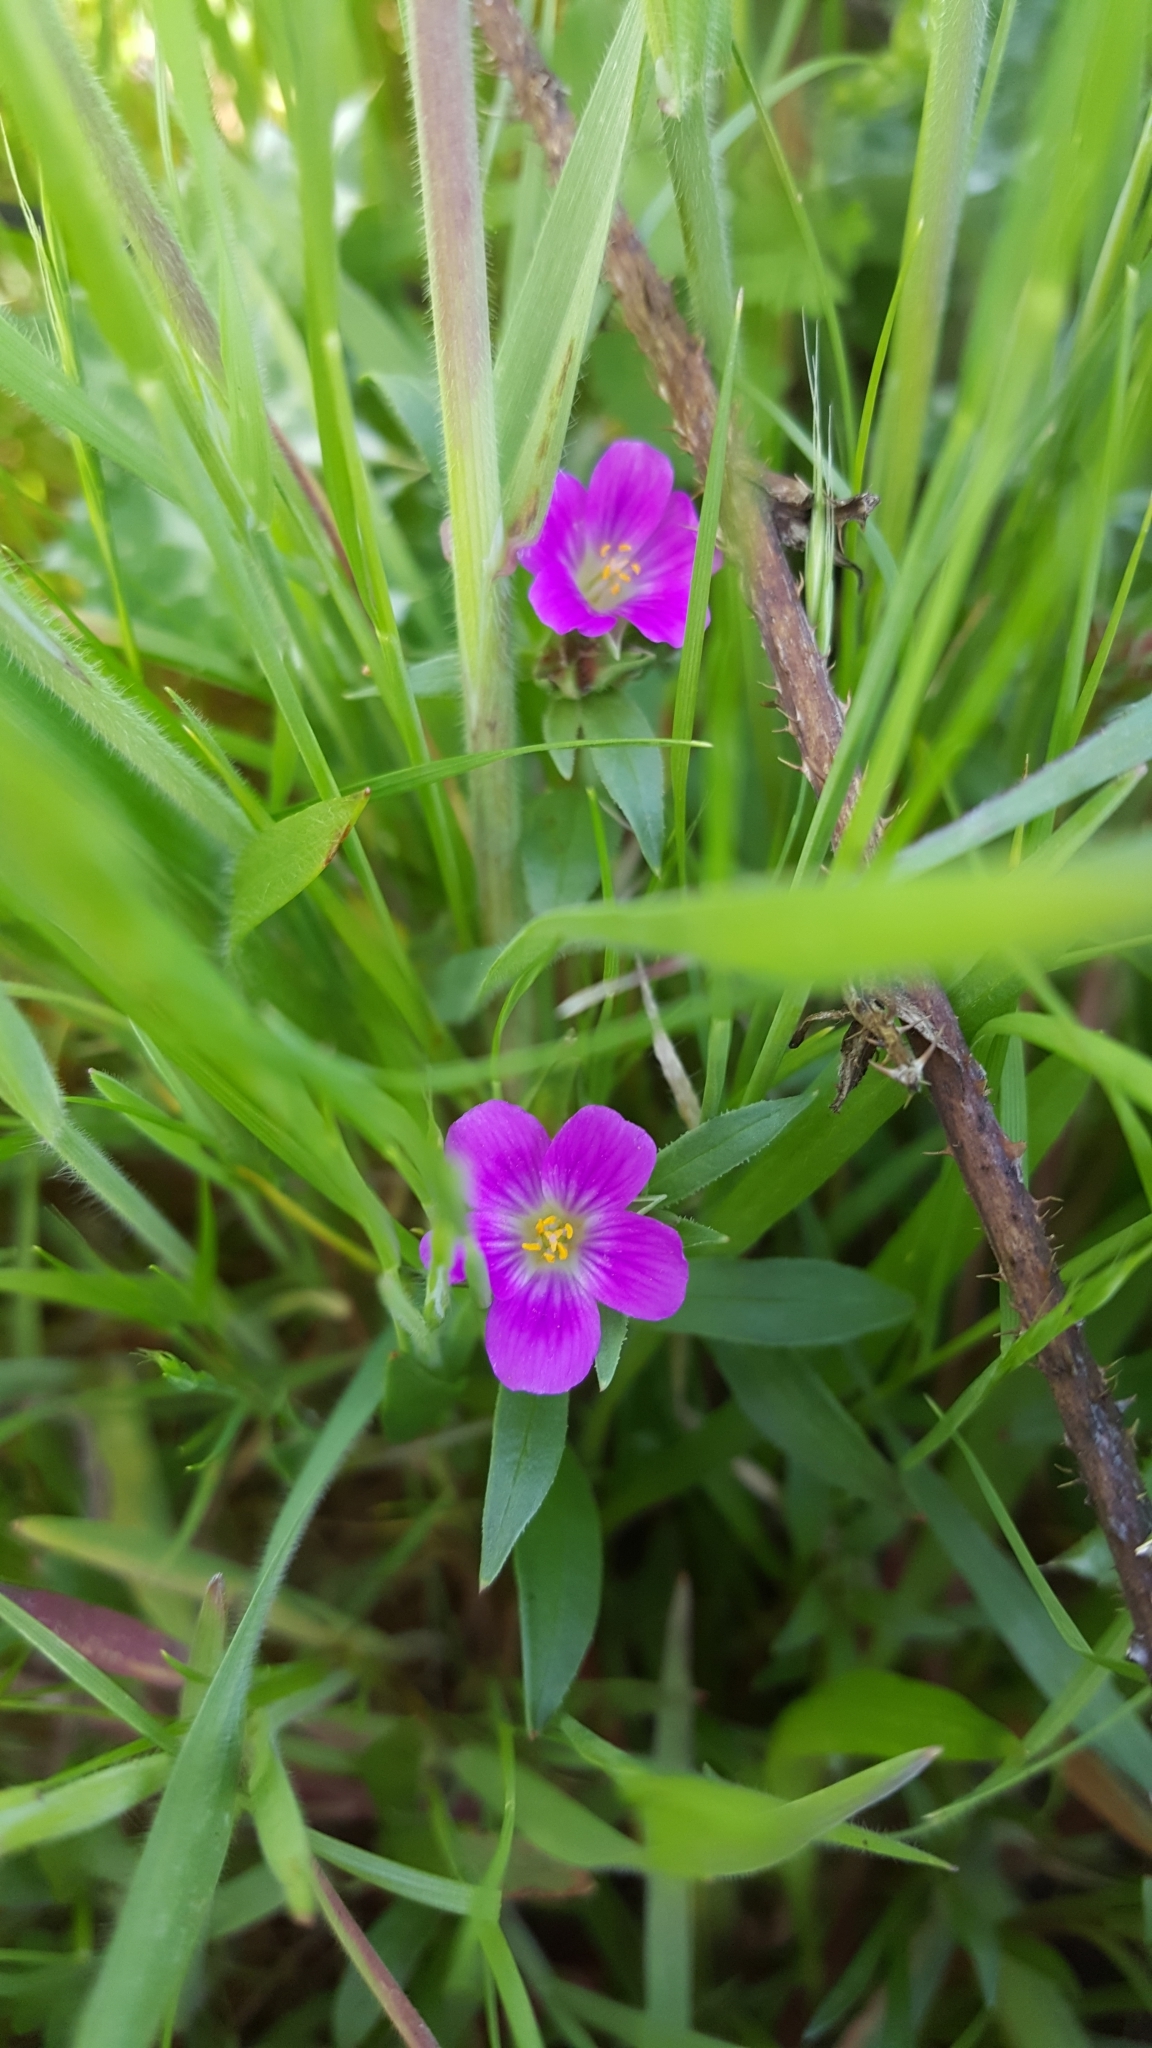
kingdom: Plantae
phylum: Tracheophyta
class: Magnoliopsida
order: Caryophyllales
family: Montiaceae
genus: Calandrinia
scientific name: Calandrinia menziesii
